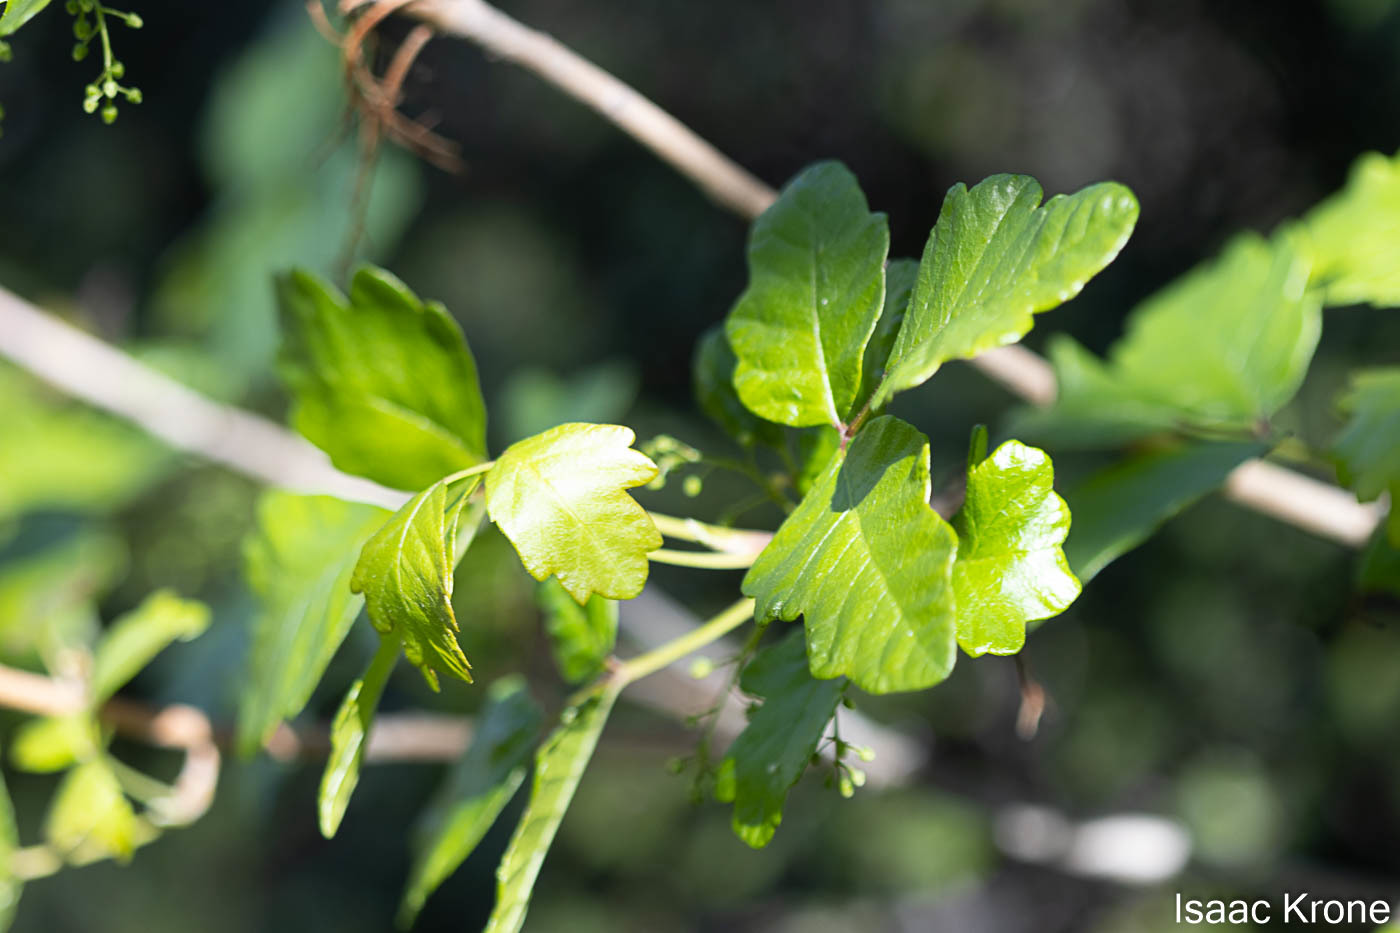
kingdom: Plantae
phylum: Tracheophyta
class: Magnoliopsida
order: Sapindales
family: Anacardiaceae
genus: Toxicodendron
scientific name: Toxicodendron diversilobum
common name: Pacific poison-oak
